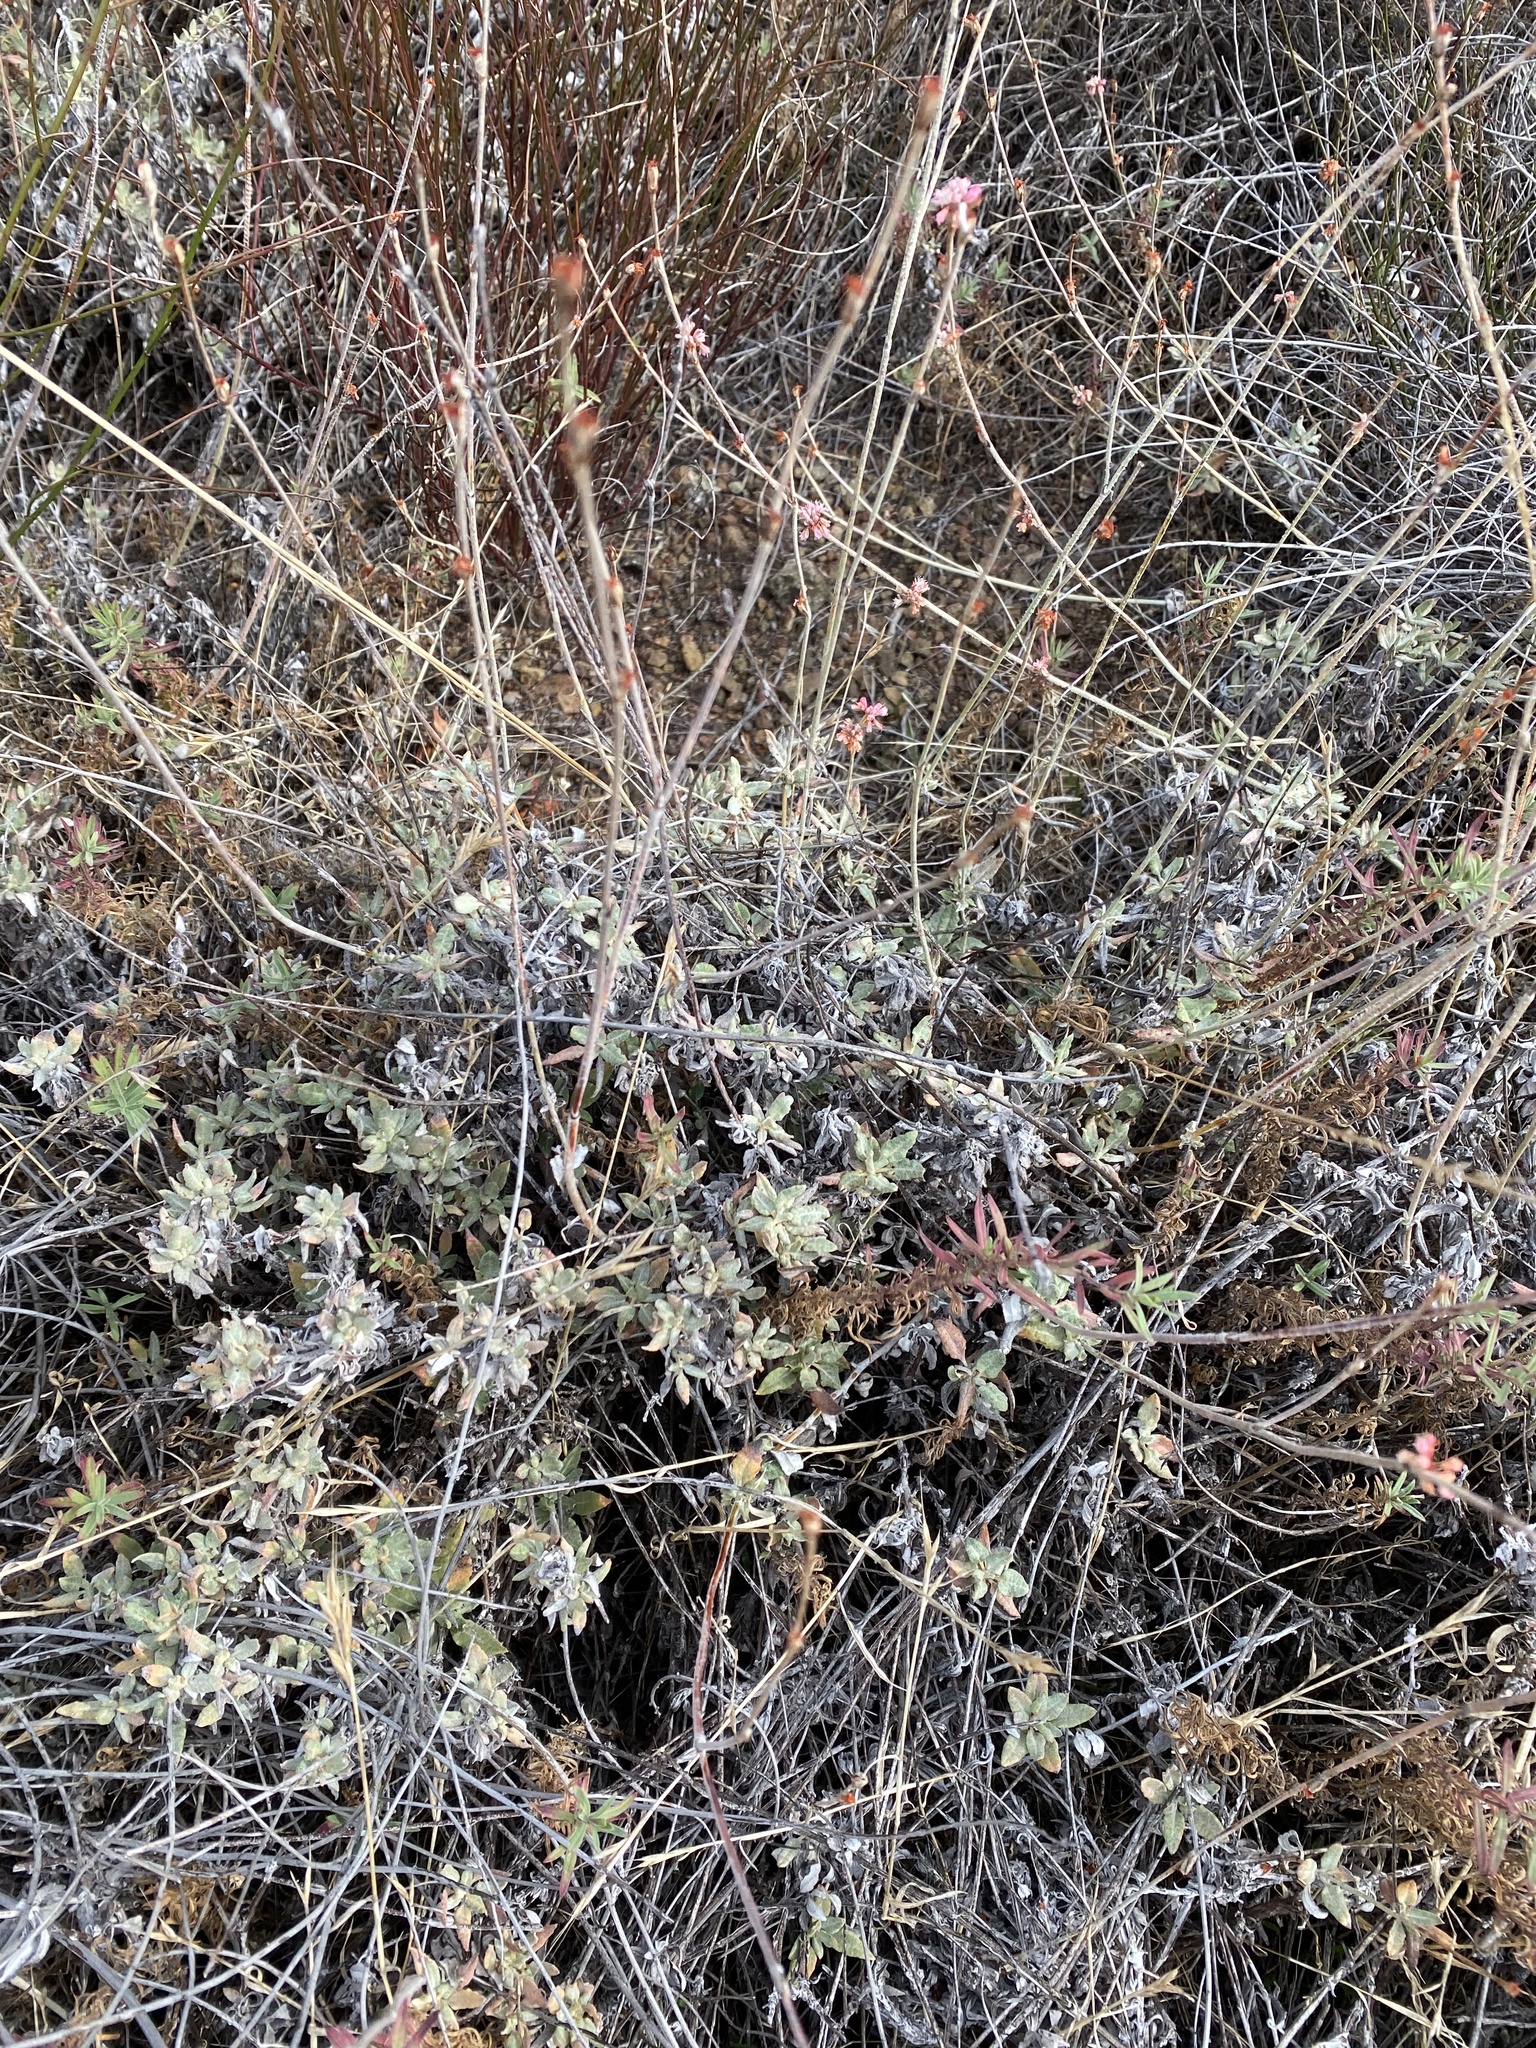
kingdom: Plantae
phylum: Tracheophyta
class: Magnoliopsida
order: Caryophyllales
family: Polygonaceae
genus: Eriogonum
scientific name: Eriogonum
